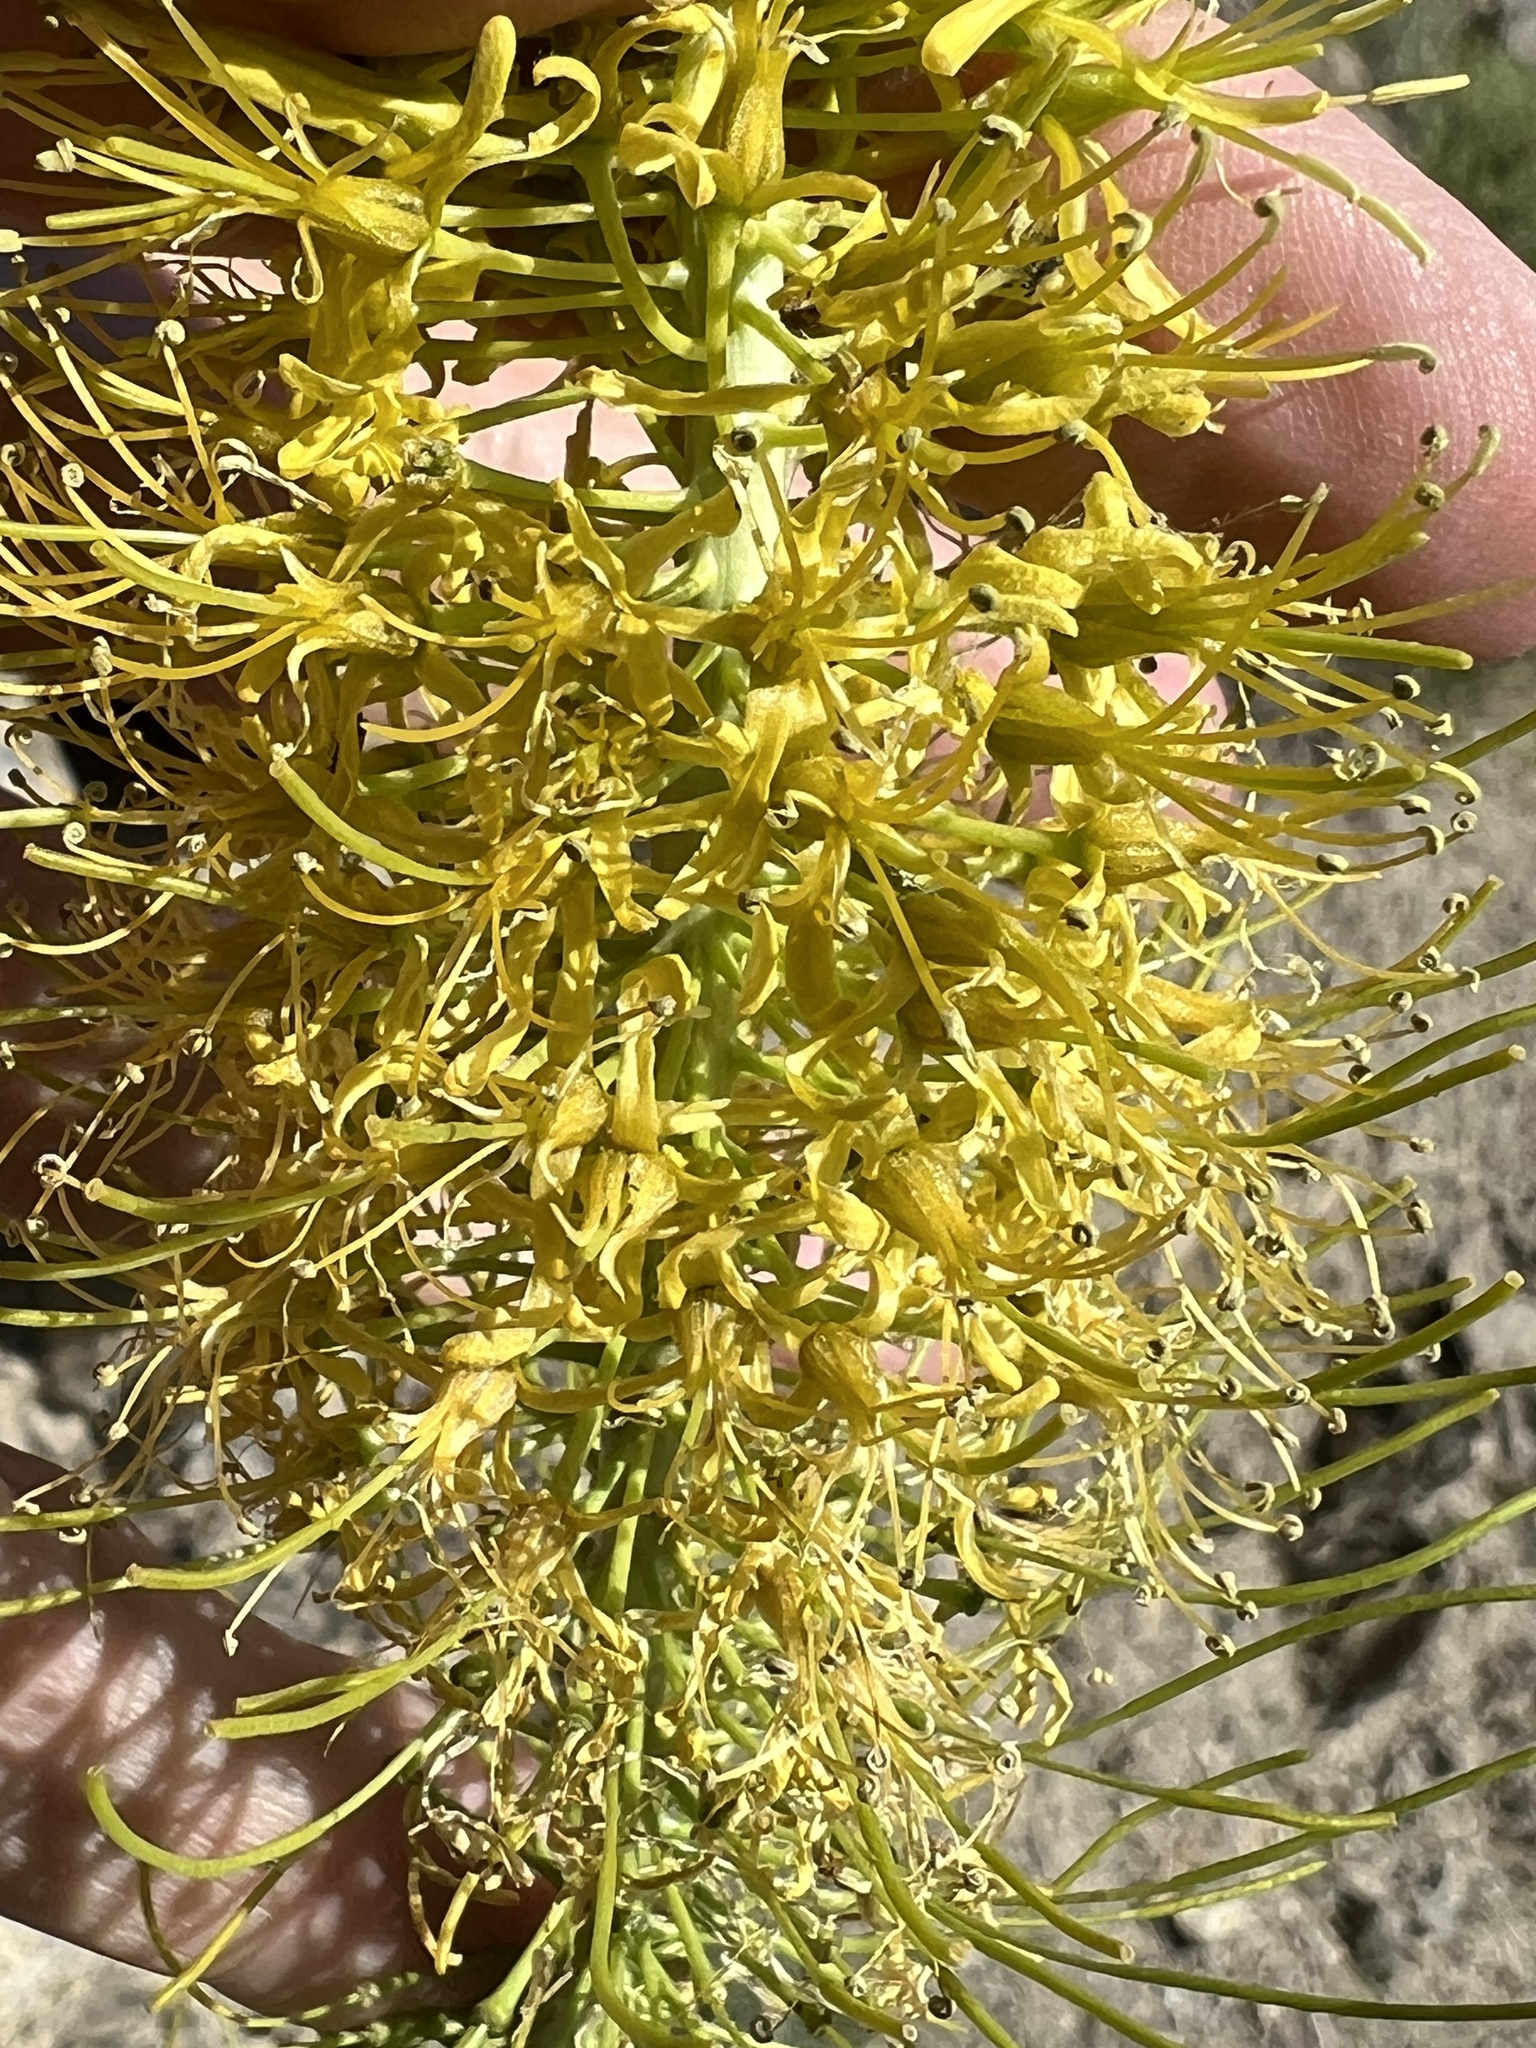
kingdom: Plantae
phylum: Tracheophyta
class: Magnoliopsida
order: Brassicales
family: Brassicaceae
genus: Stanleya
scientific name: Stanleya elata
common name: Panamint prince's plume
